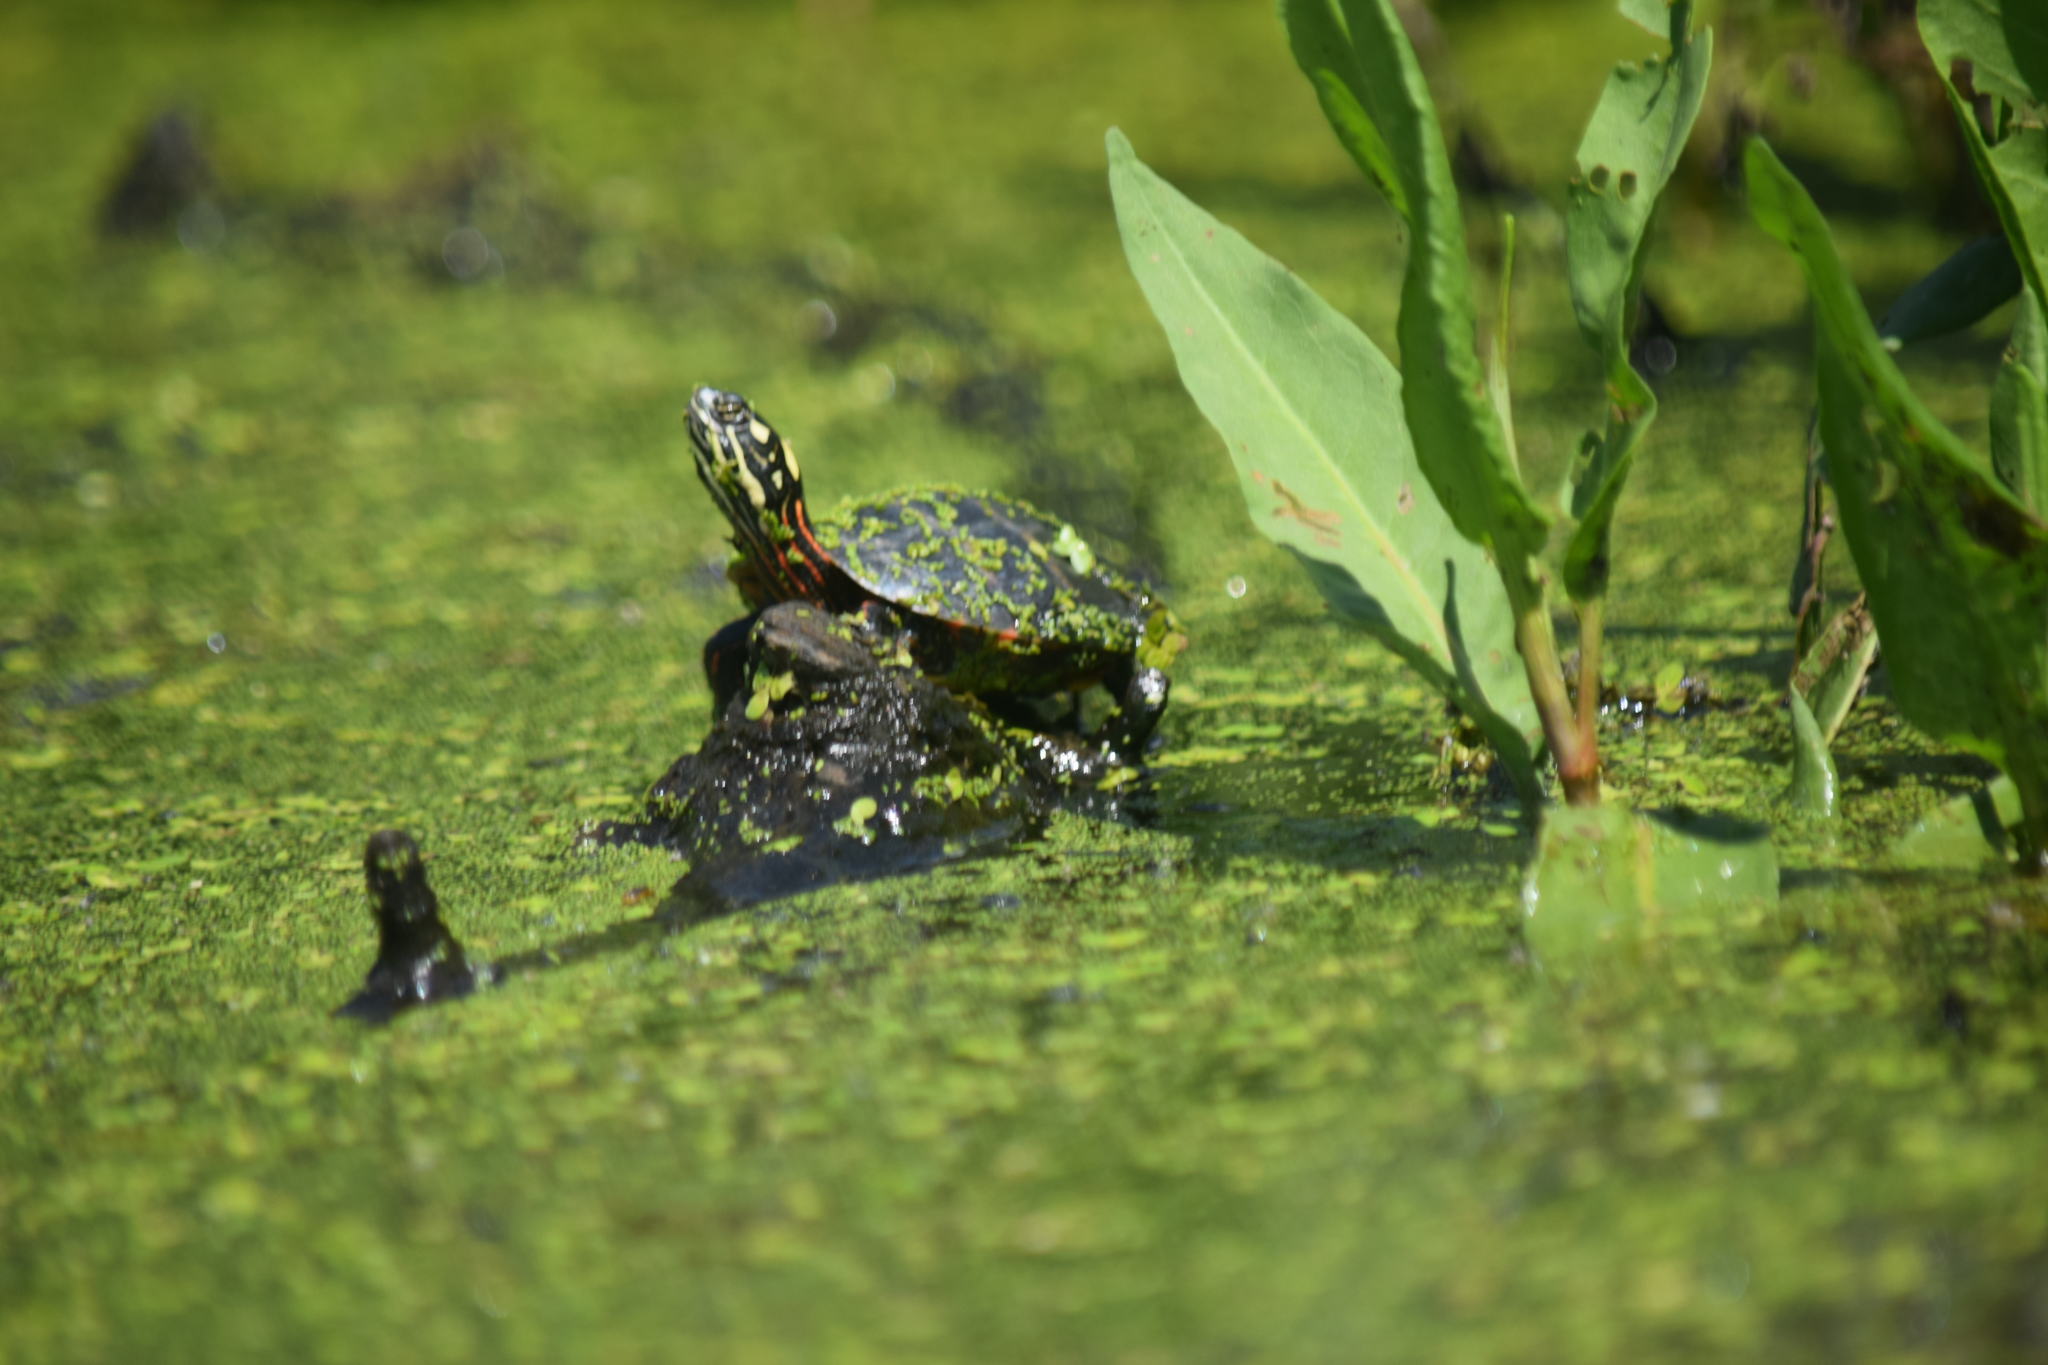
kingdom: Animalia
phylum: Chordata
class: Testudines
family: Emydidae
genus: Chrysemys
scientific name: Chrysemys picta
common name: Painted turtle
